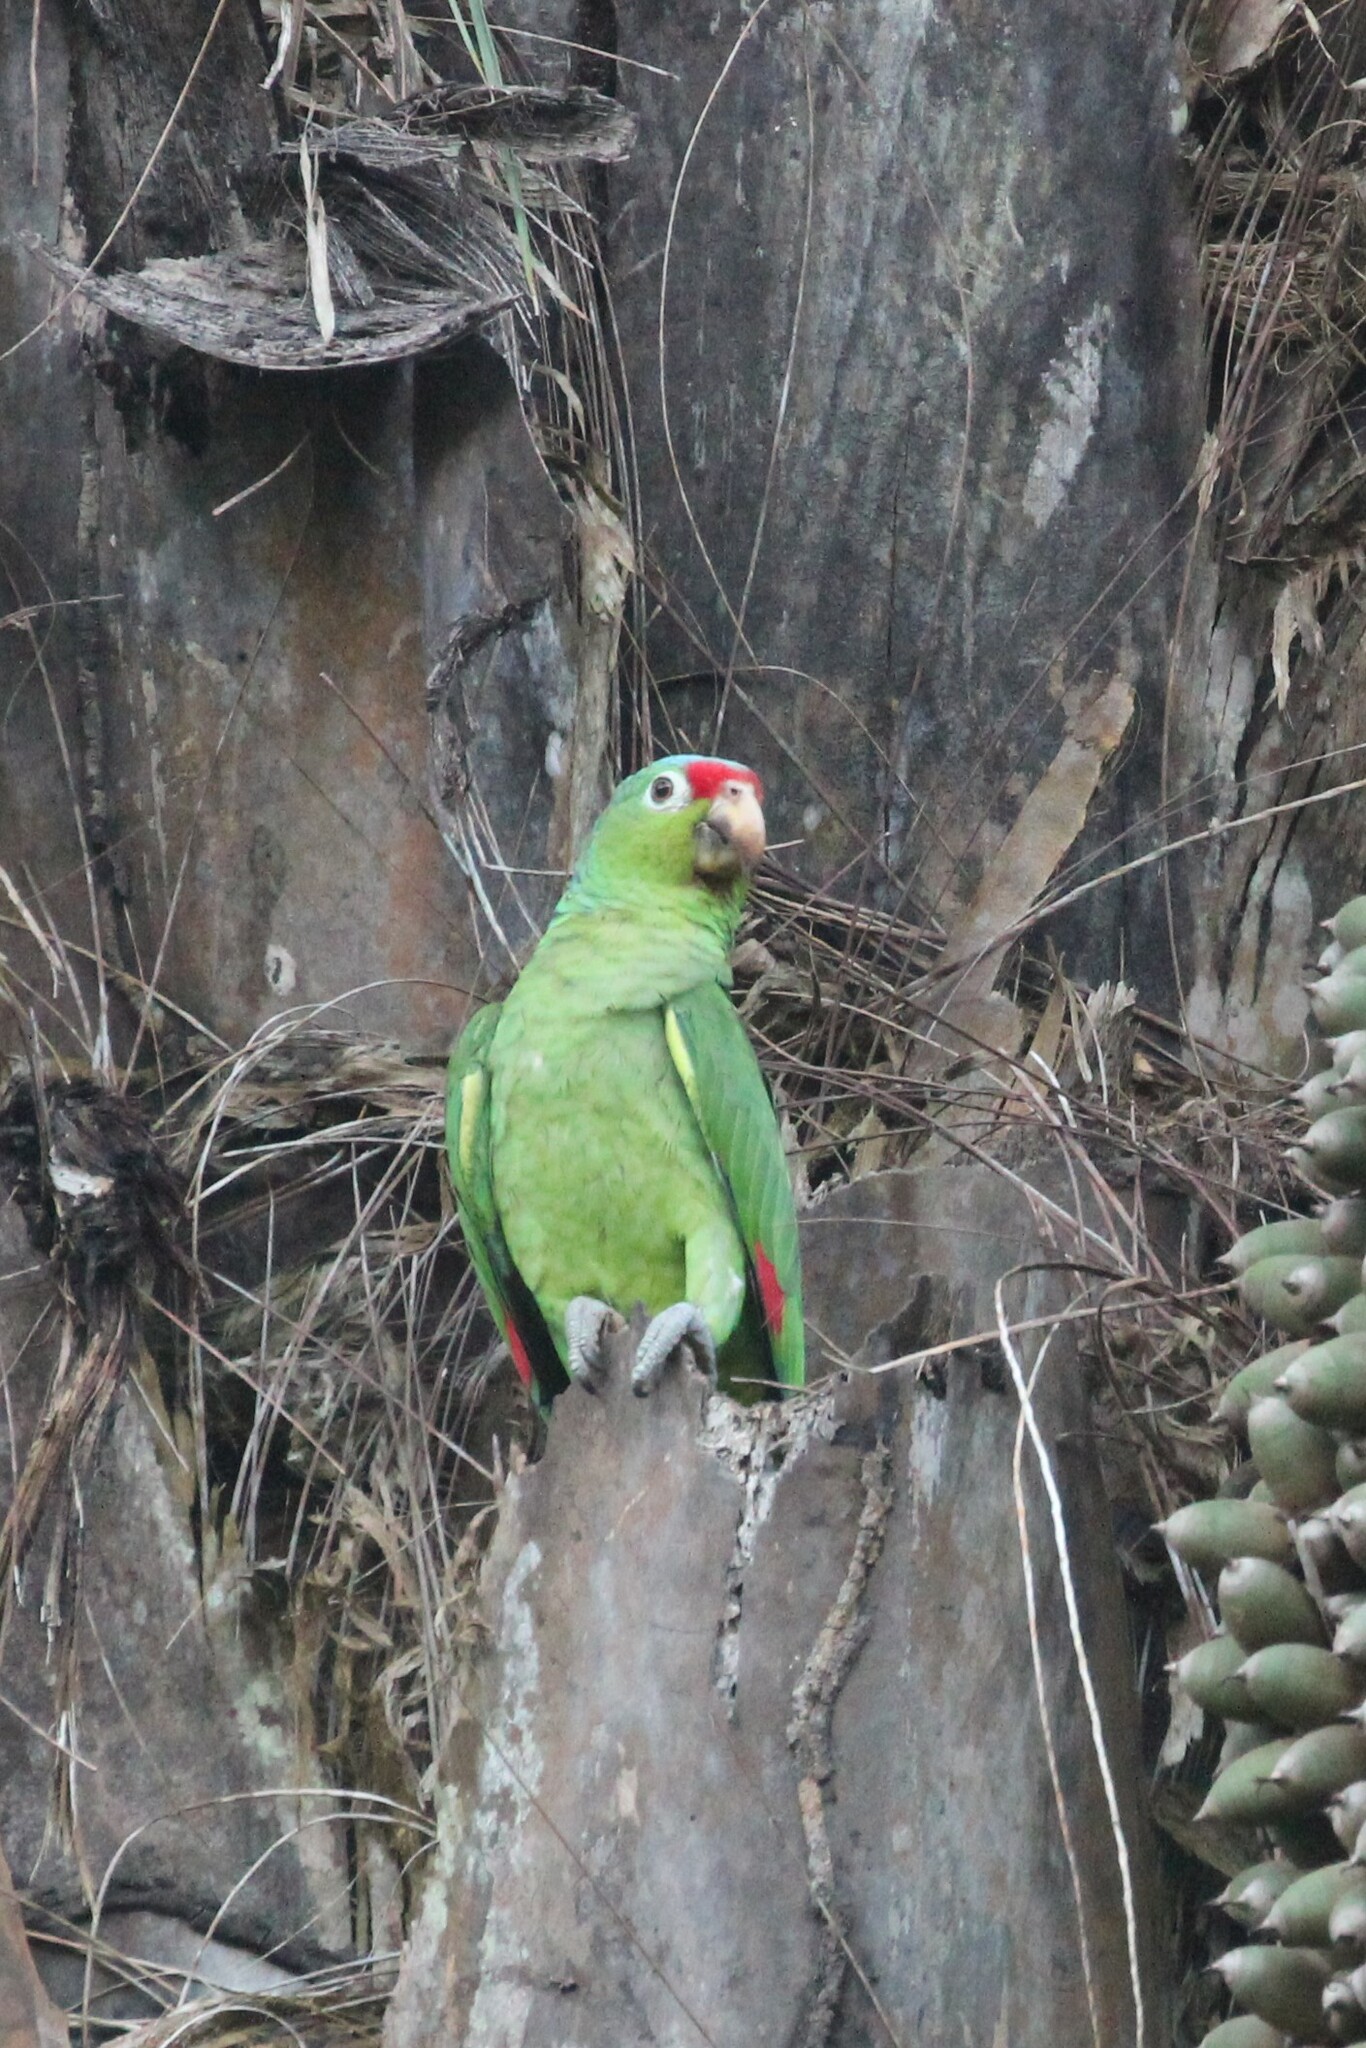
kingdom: Animalia
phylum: Chordata
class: Aves
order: Psittaciformes
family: Psittacidae
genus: Amazona
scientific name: Amazona autumnalis
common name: Red-lored amazon
